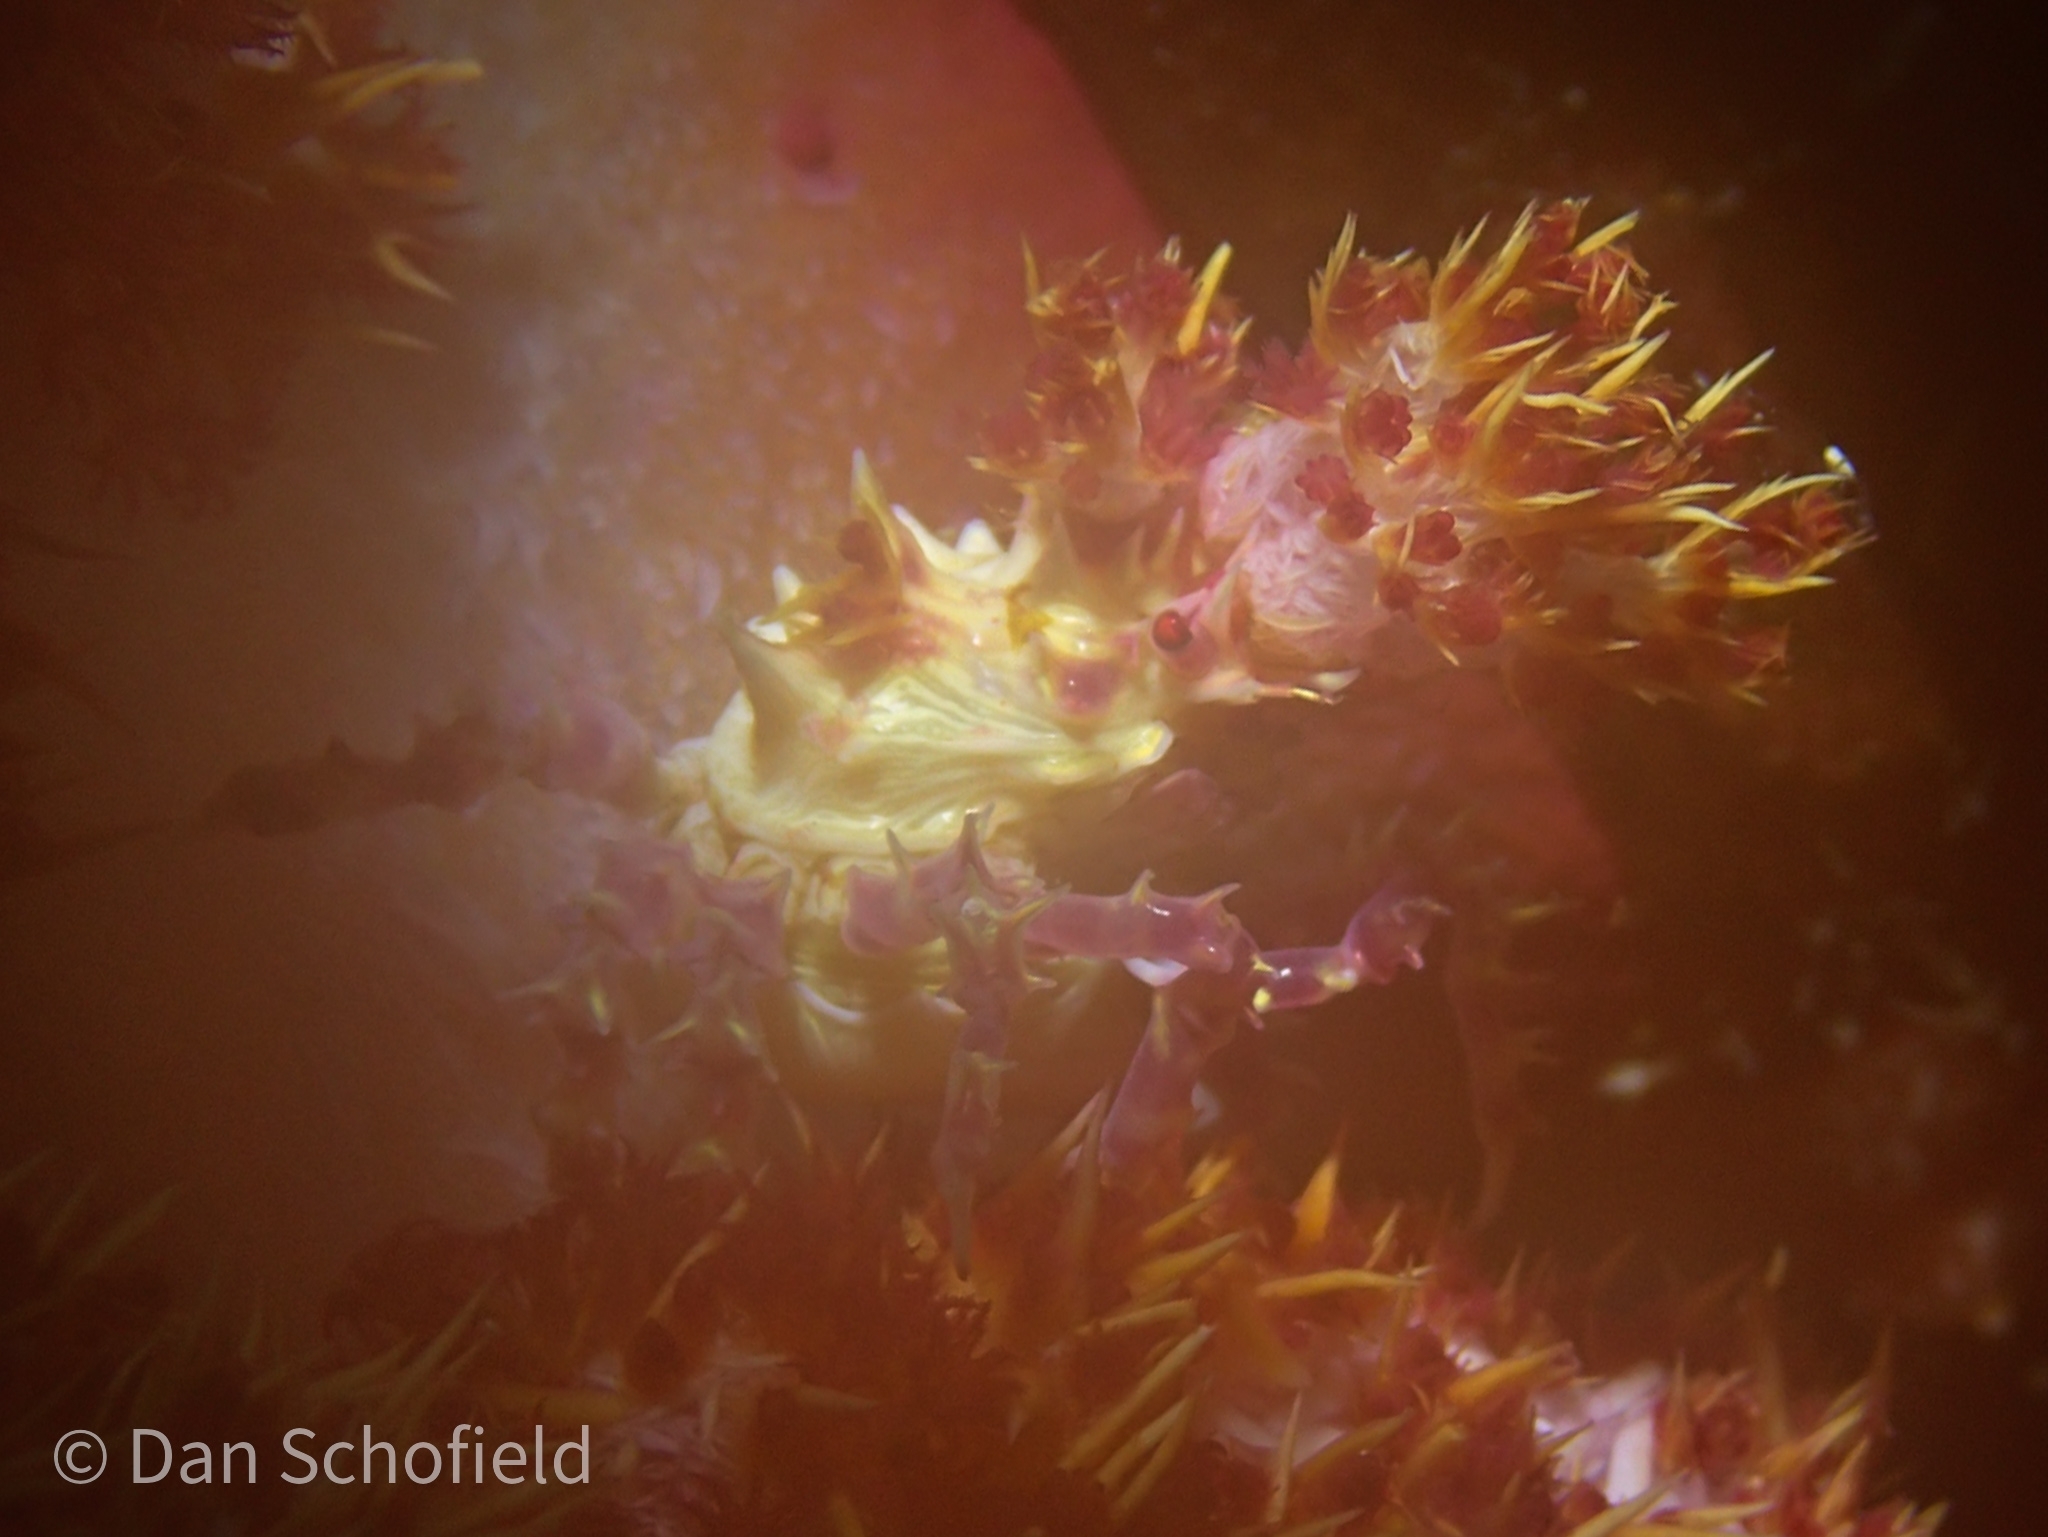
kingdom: Animalia
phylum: Arthropoda
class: Malacostraca
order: Decapoda
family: Epialtidae
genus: Hoplophrys
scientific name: Hoplophrys oatesii
